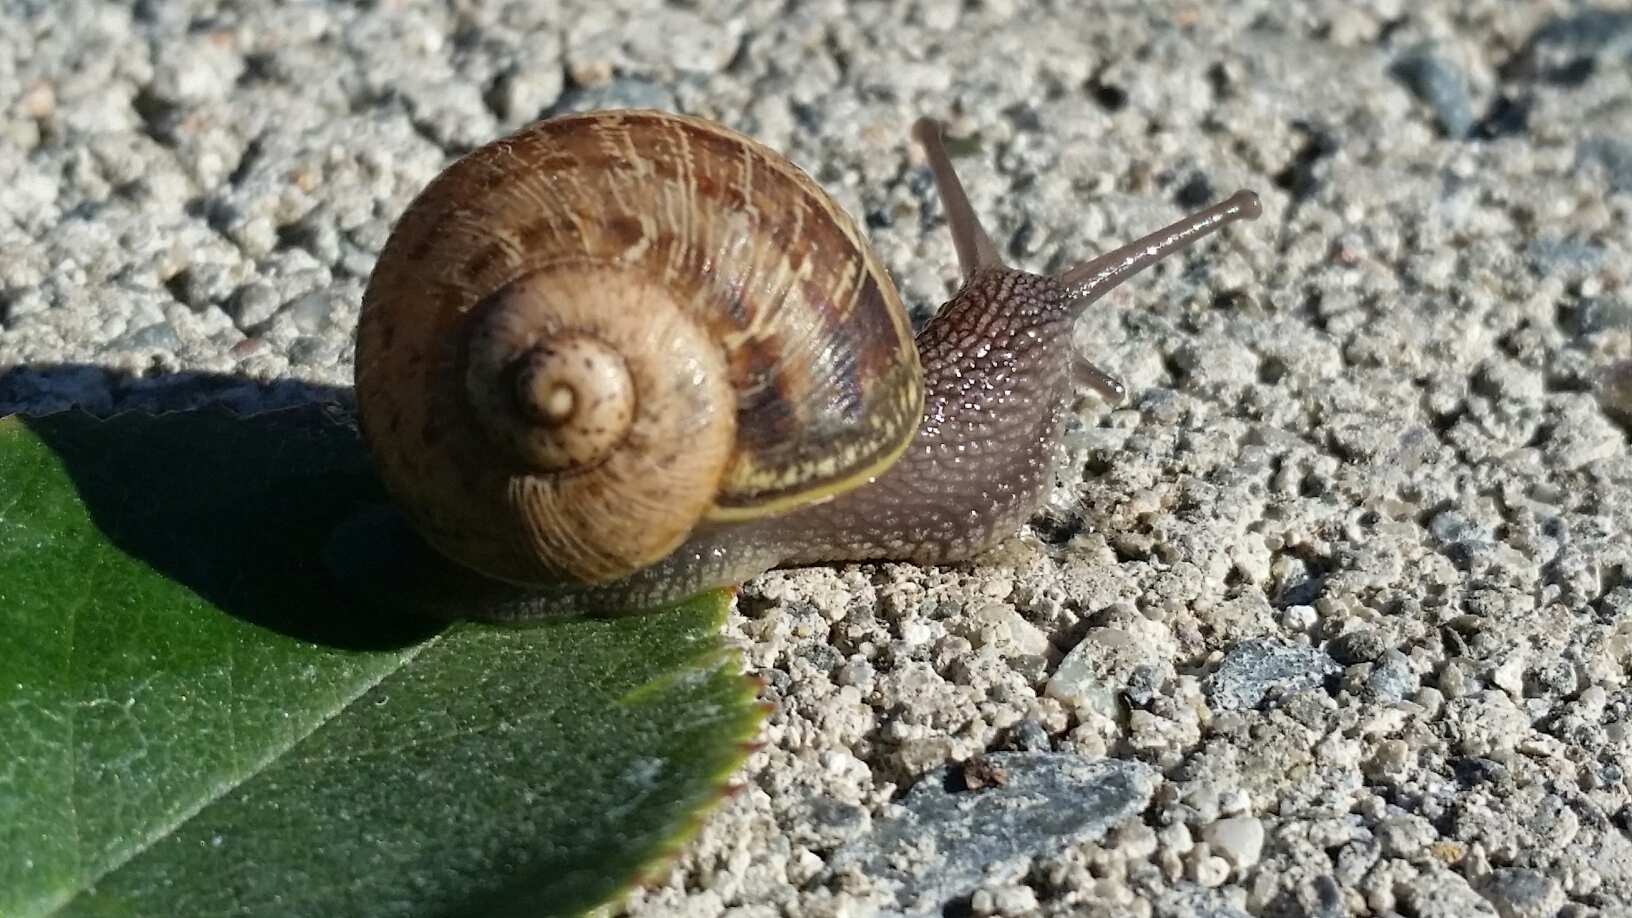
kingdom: Animalia
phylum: Mollusca
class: Gastropoda
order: Stylommatophora
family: Helicidae
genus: Cornu
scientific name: Cornu aspersum
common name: Brown garden snail
